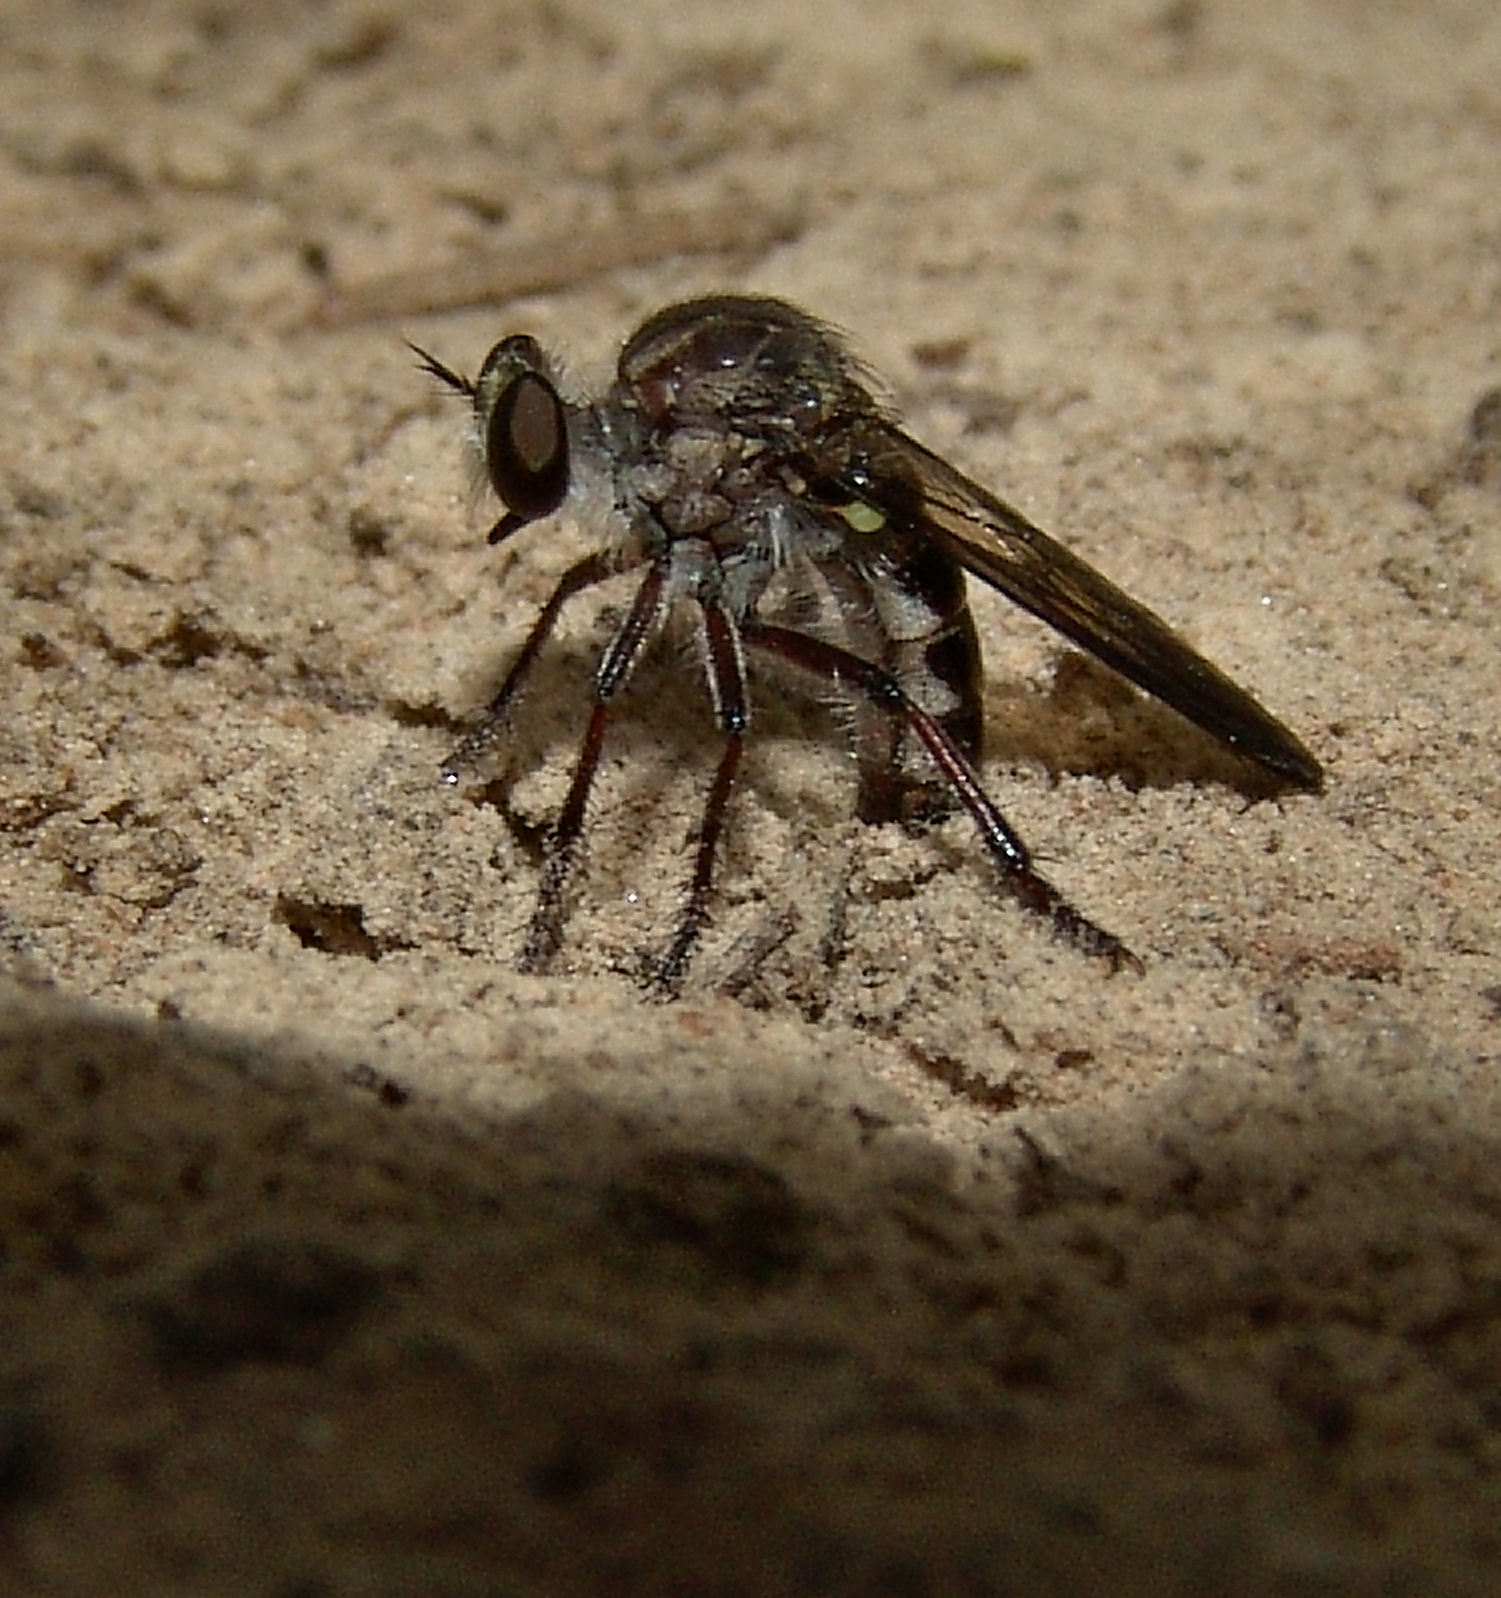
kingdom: Animalia
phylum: Arthropoda
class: Insecta
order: Diptera
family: Asilidae
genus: Heteropogon
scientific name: Heteropogon macerinus
